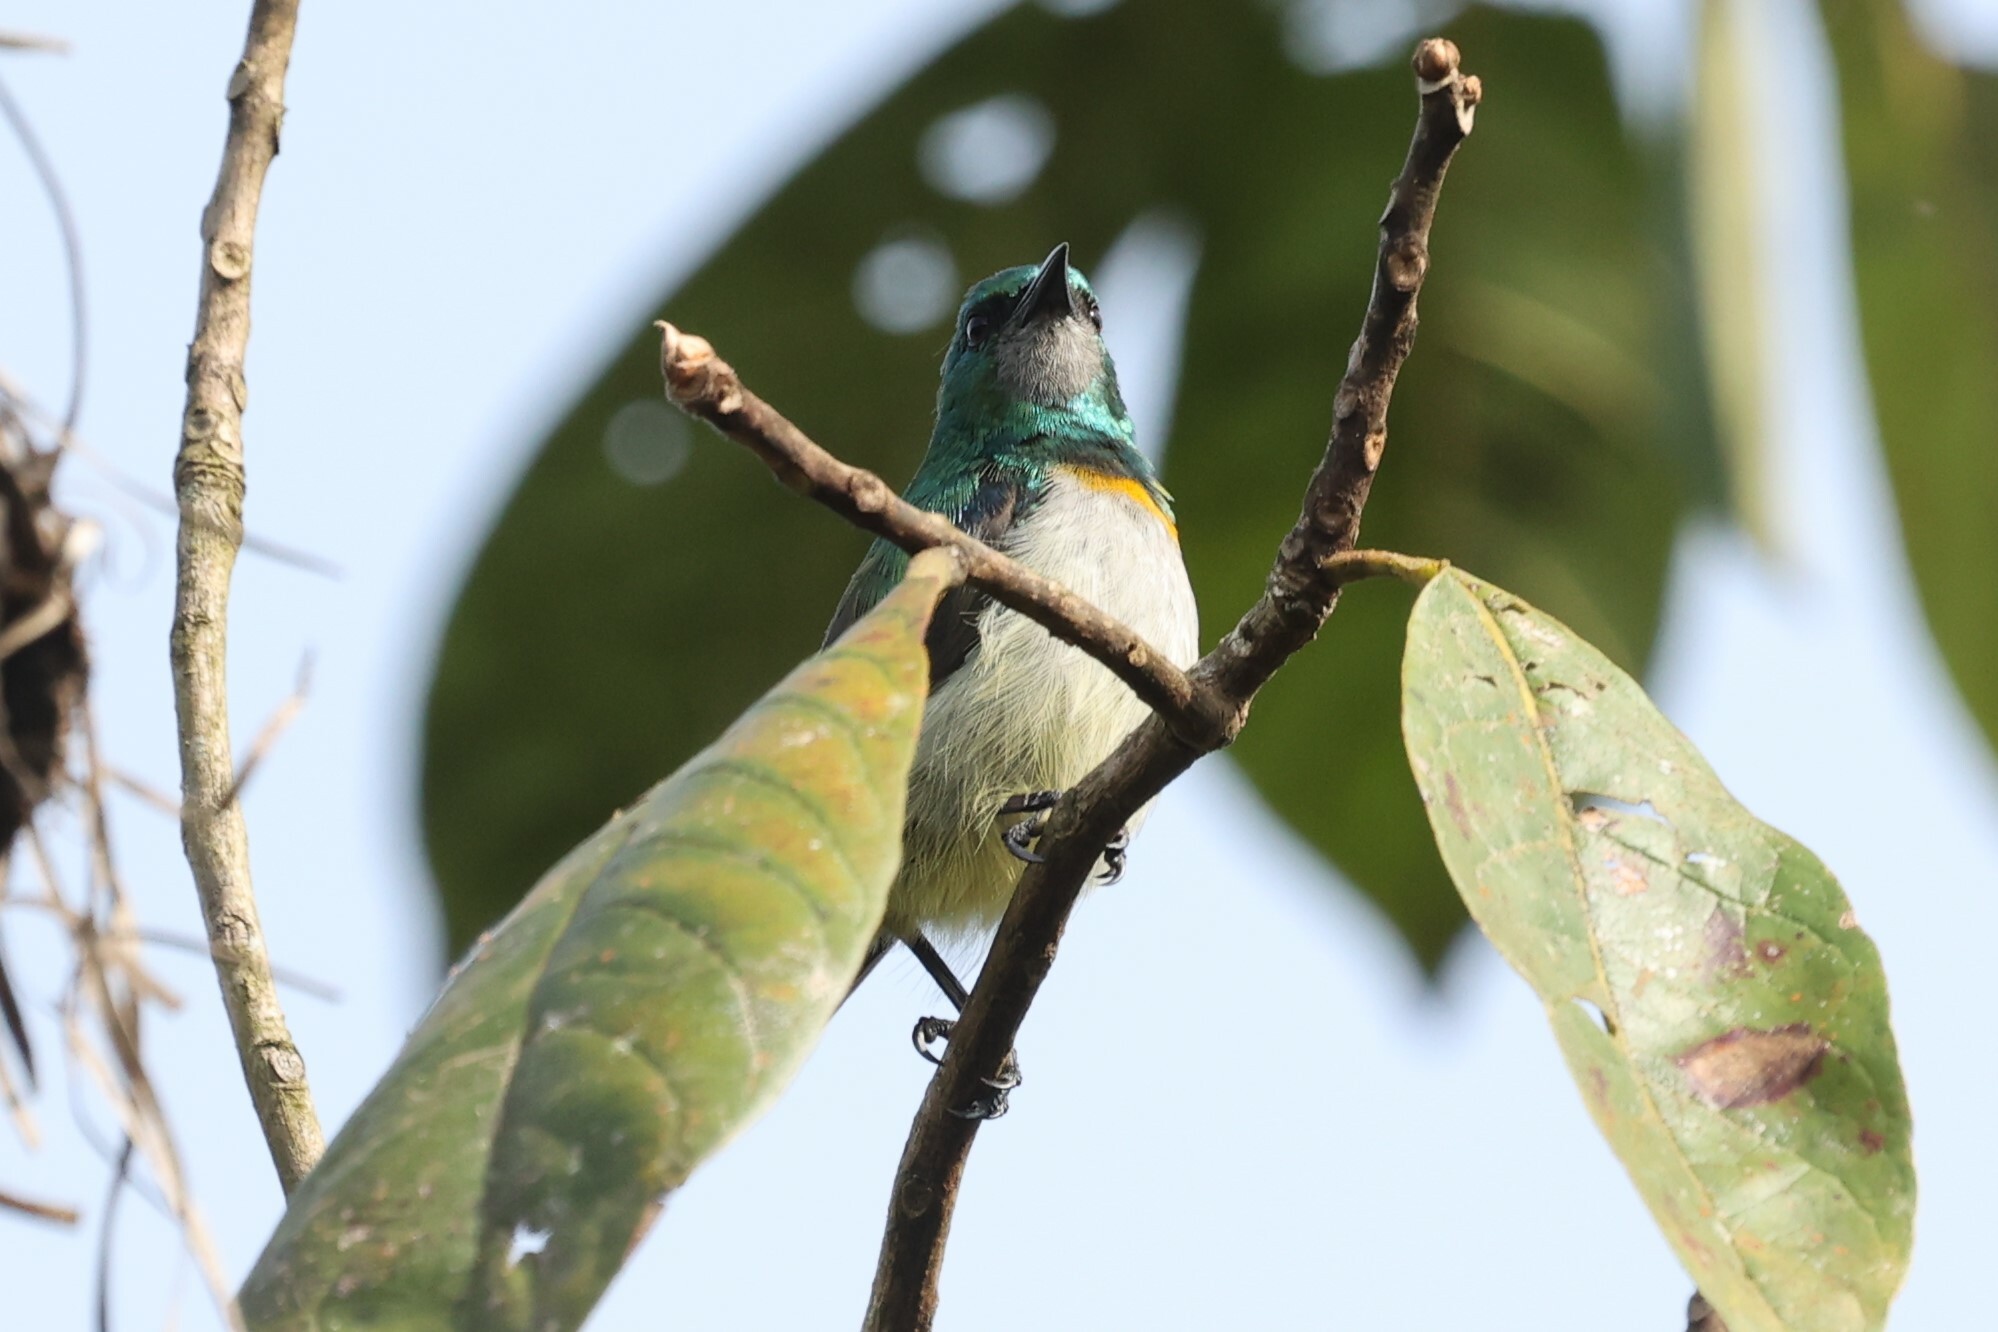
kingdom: Animalia
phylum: Chordata
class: Aves
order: Passeriformes
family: Nectariniidae
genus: Anthreptes
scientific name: Anthreptes rectirostris
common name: Grey-chinned sunbird
